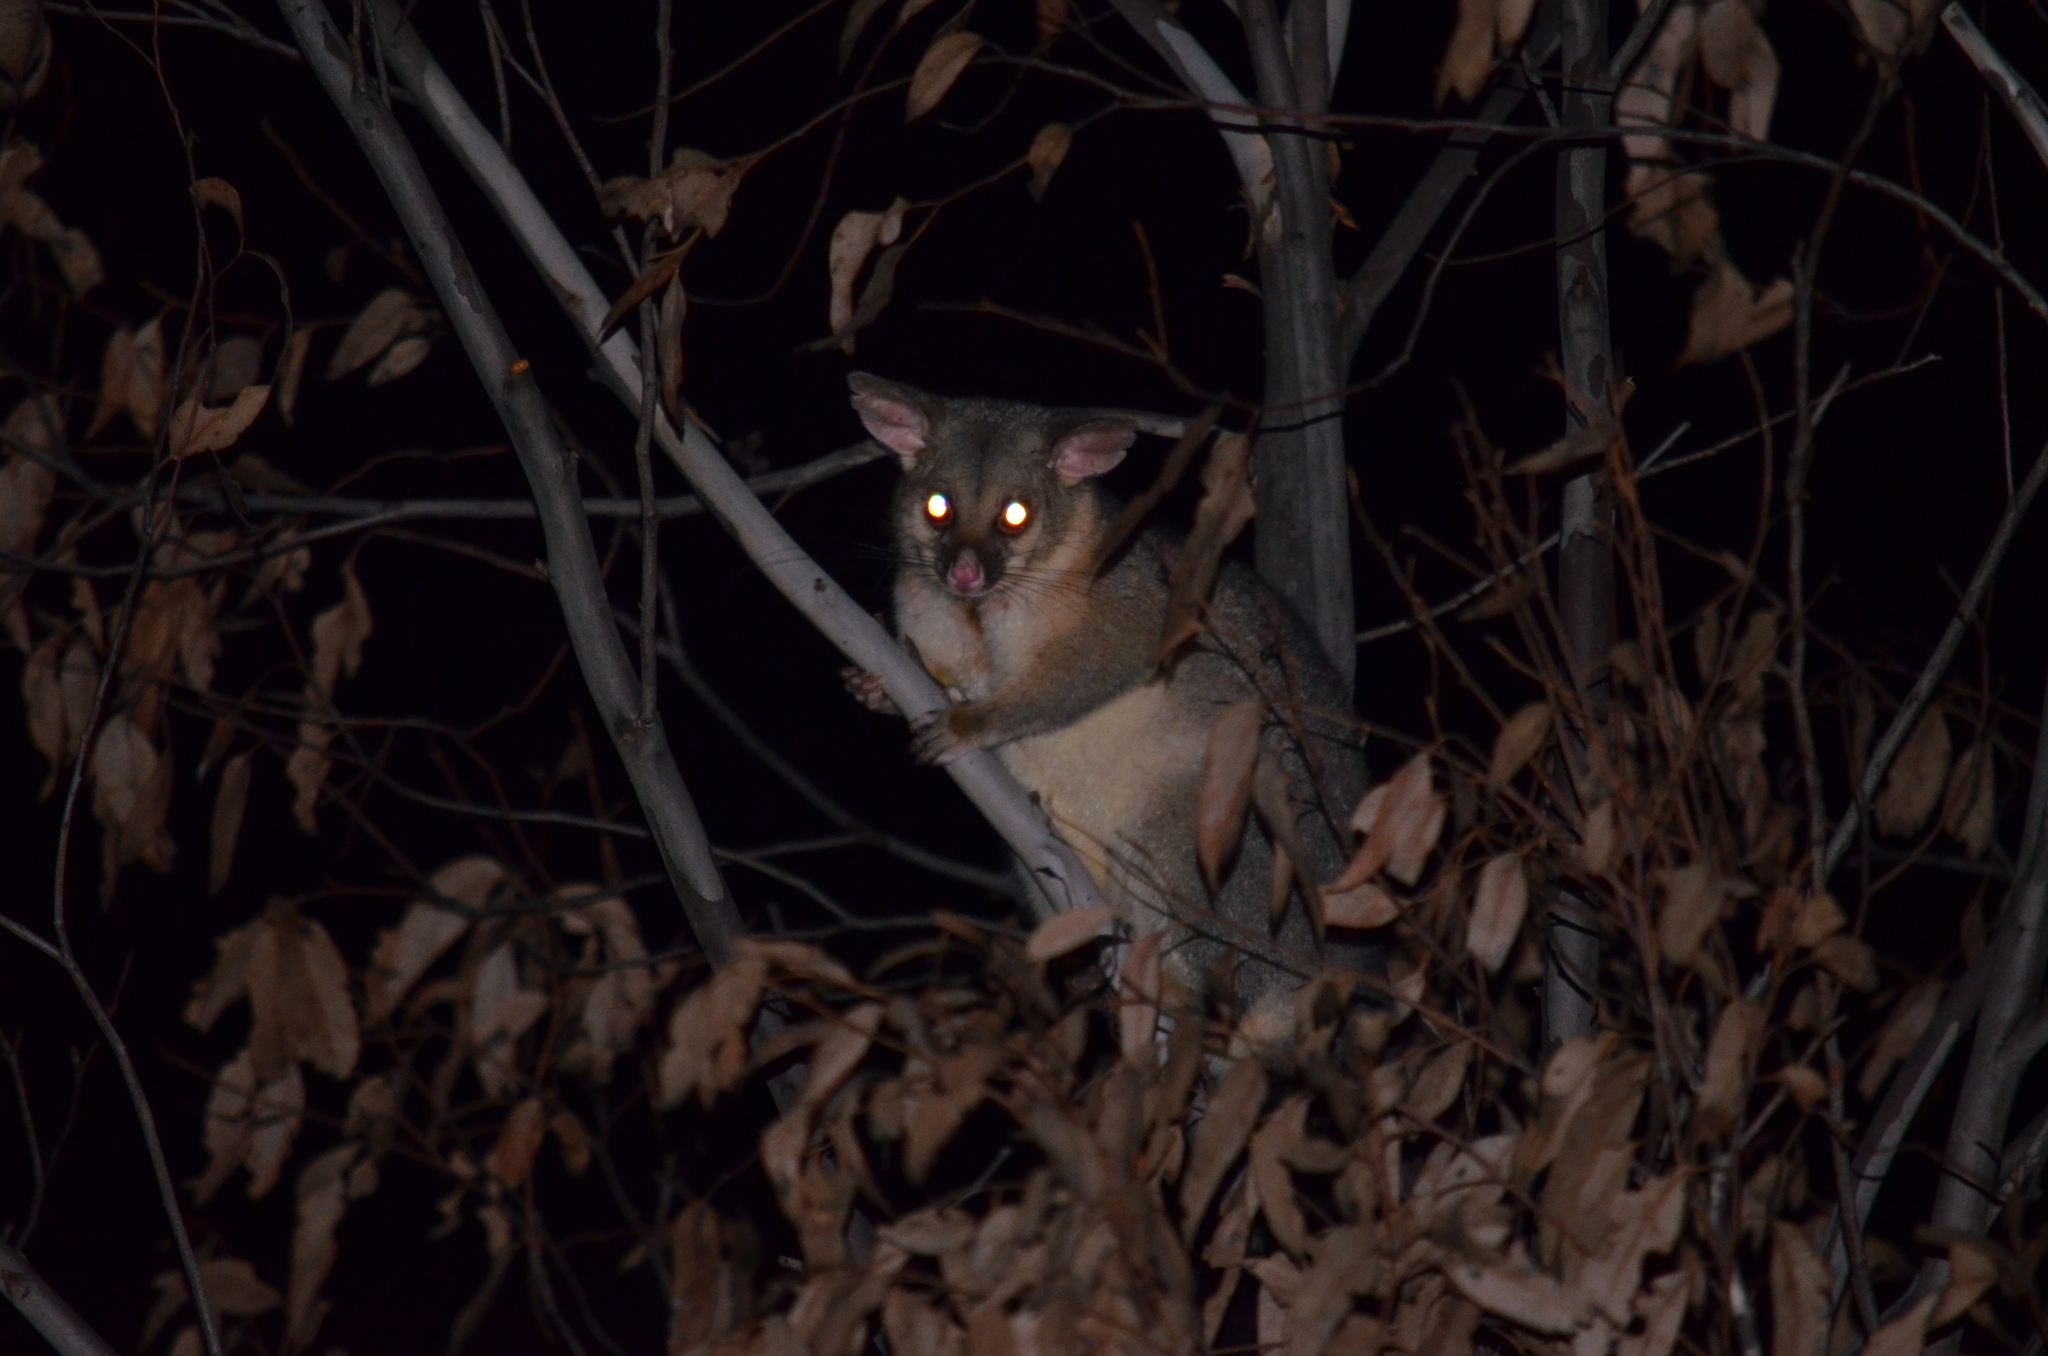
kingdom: Animalia
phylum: Chordata
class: Mammalia
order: Diprotodontia
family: Phalangeridae
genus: Trichosurus
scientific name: Trichosurus vulpecula
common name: Common brushtail
